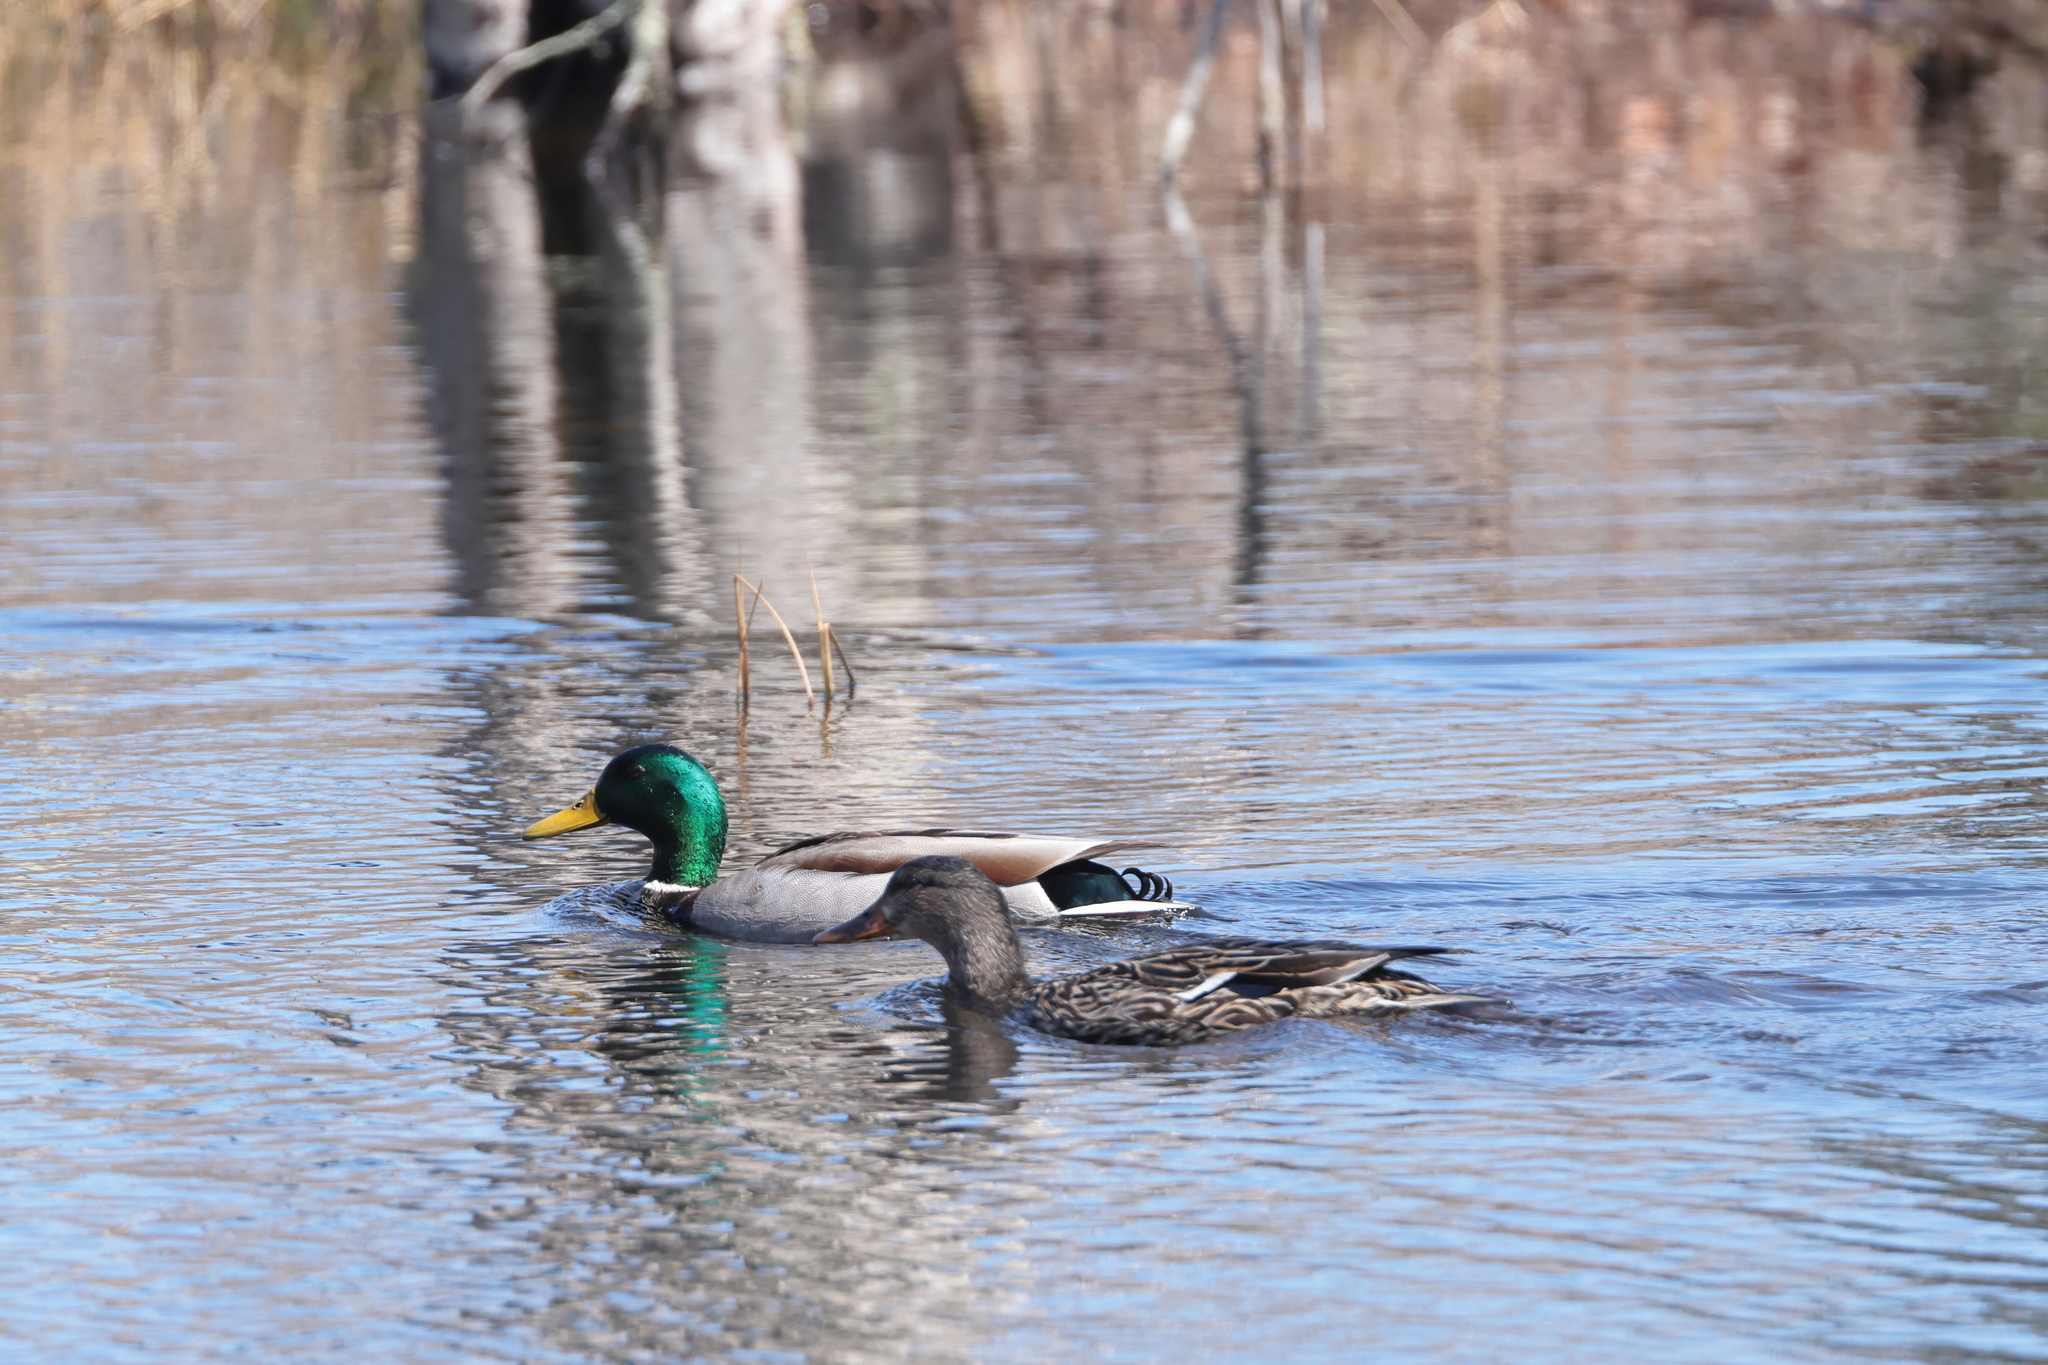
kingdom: Animalia
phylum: Chordata
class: Aves
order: Anseriformes
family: Anatidae
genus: Anas
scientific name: Anas platyrhynchos
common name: Mallard
